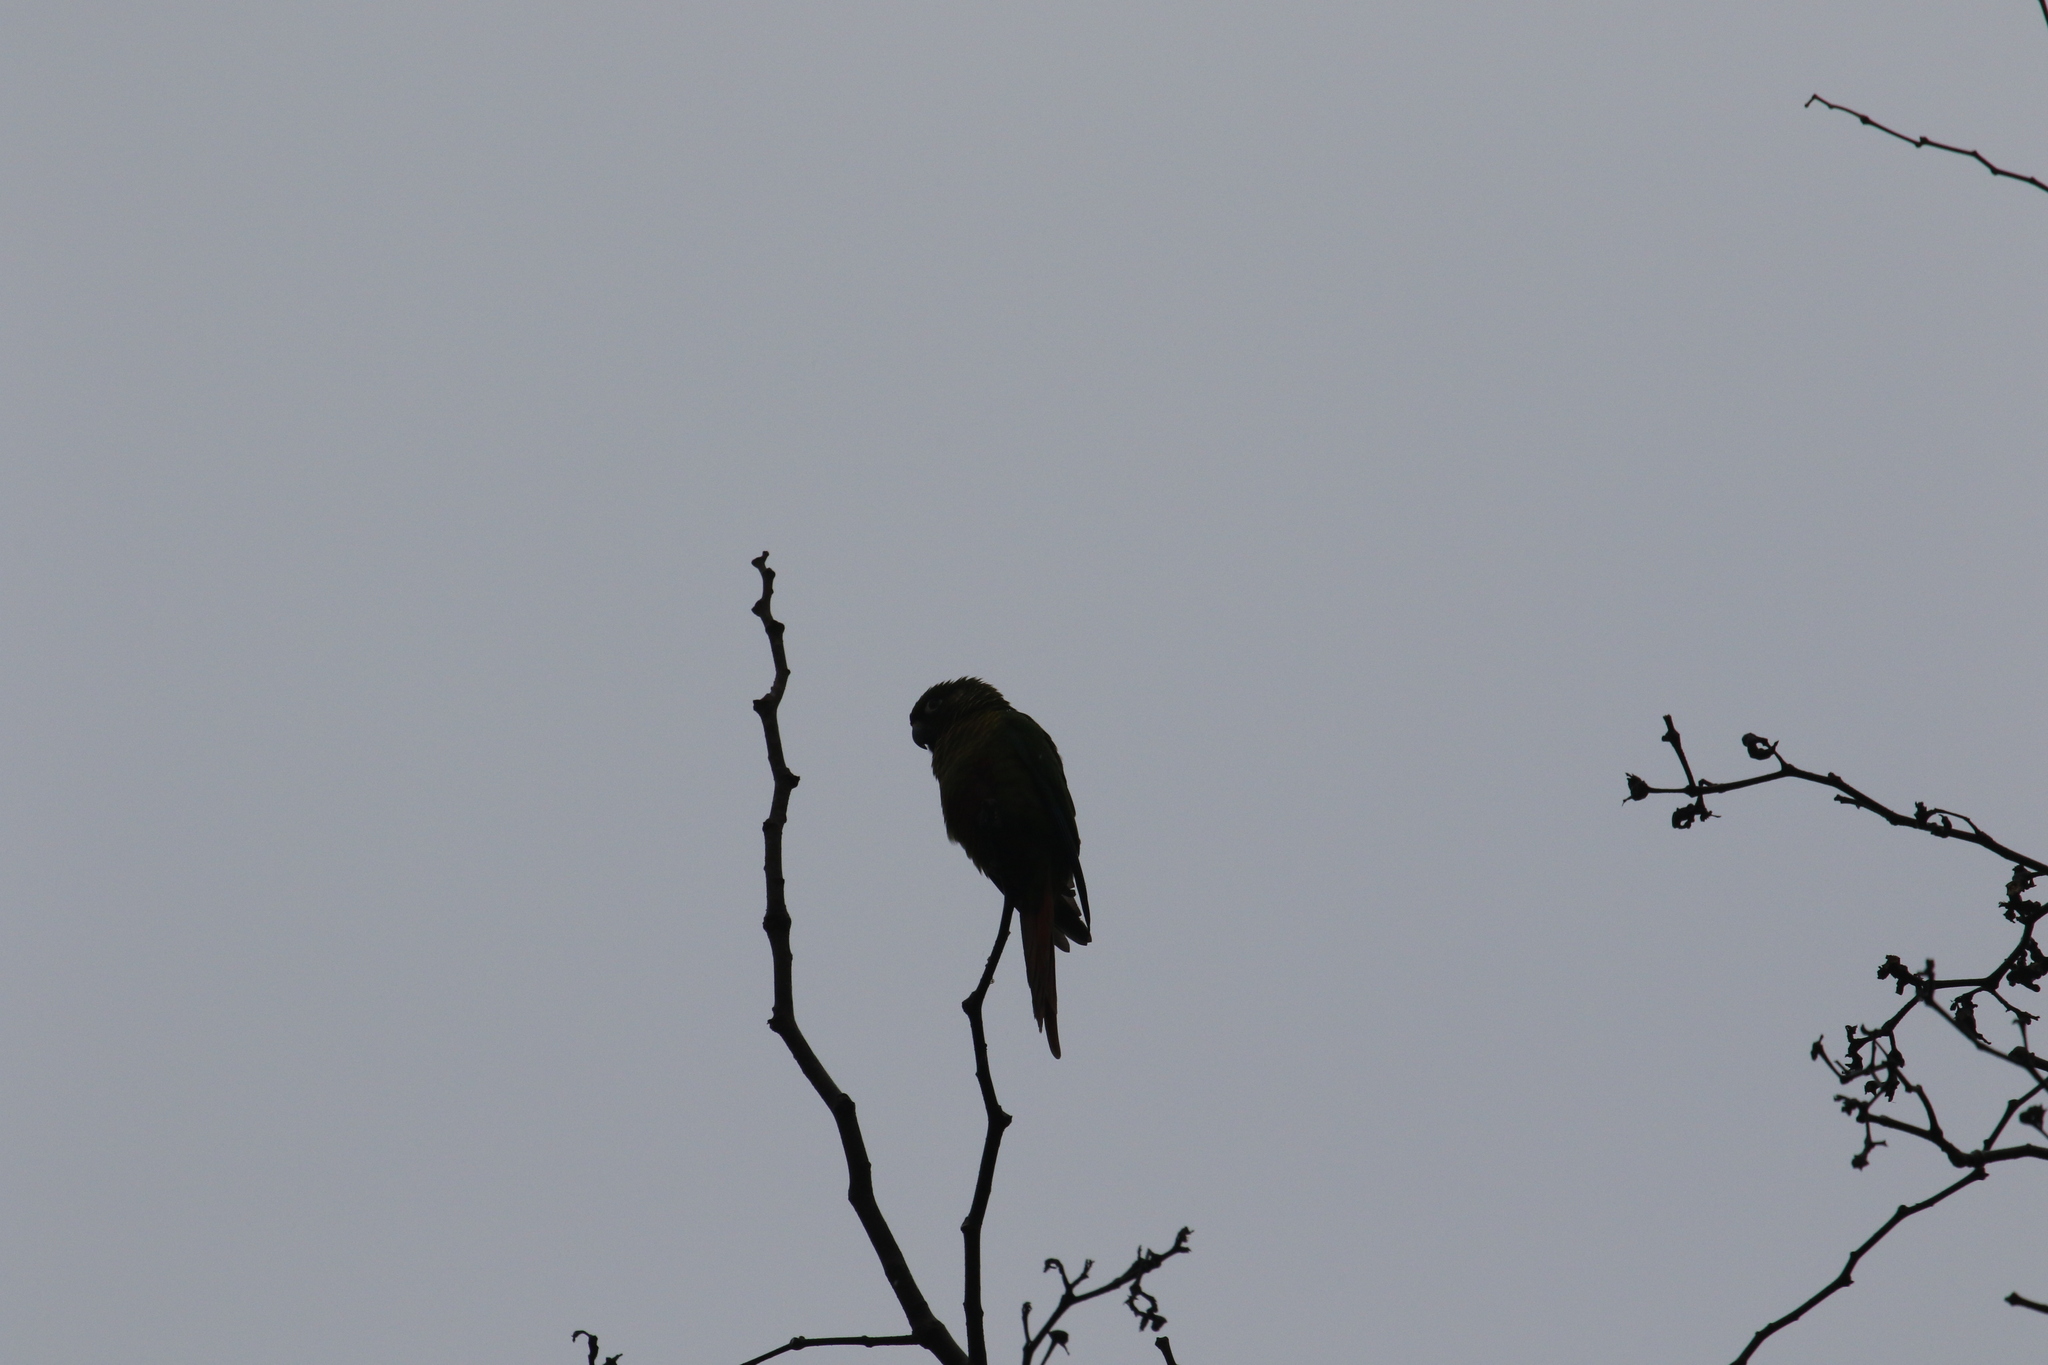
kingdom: Animalia
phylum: Chordata
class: Aves
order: Psittaciformes
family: Psittacidae
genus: Pyrrhura
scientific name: Pyrrhura frontalis
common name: Maroon-bellied parakeet
